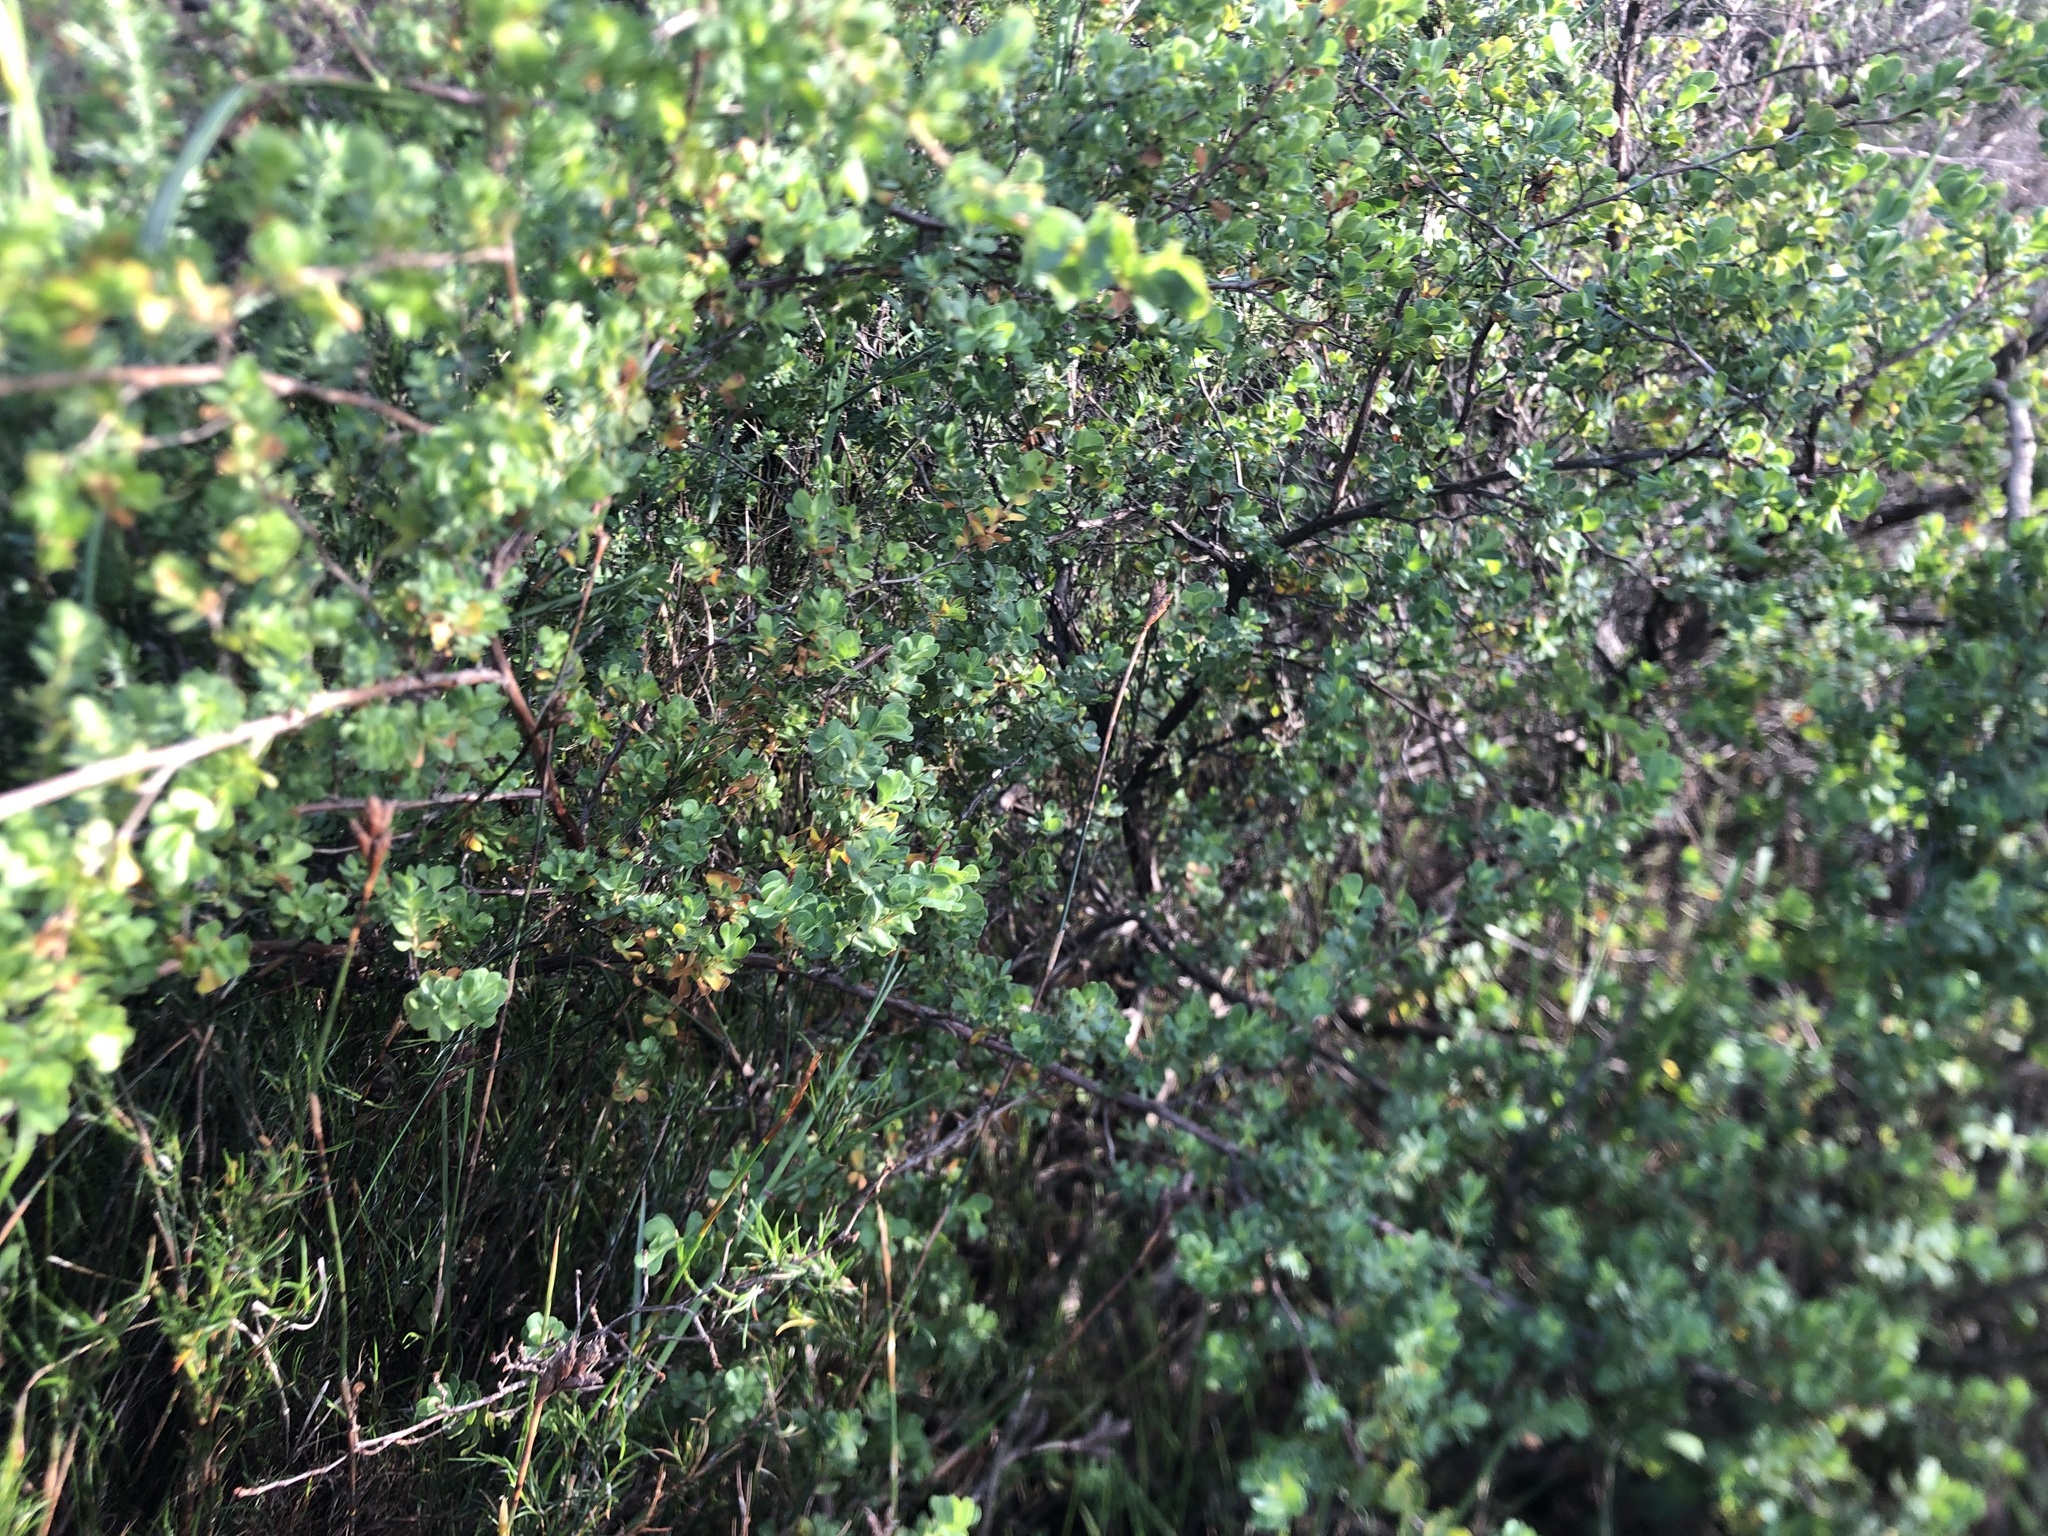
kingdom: Plantae
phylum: Tracheophyta
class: Magnoliopsida
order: Rosales
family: Rosaceae
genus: Cliffortia
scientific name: Cliffortia obcordata
